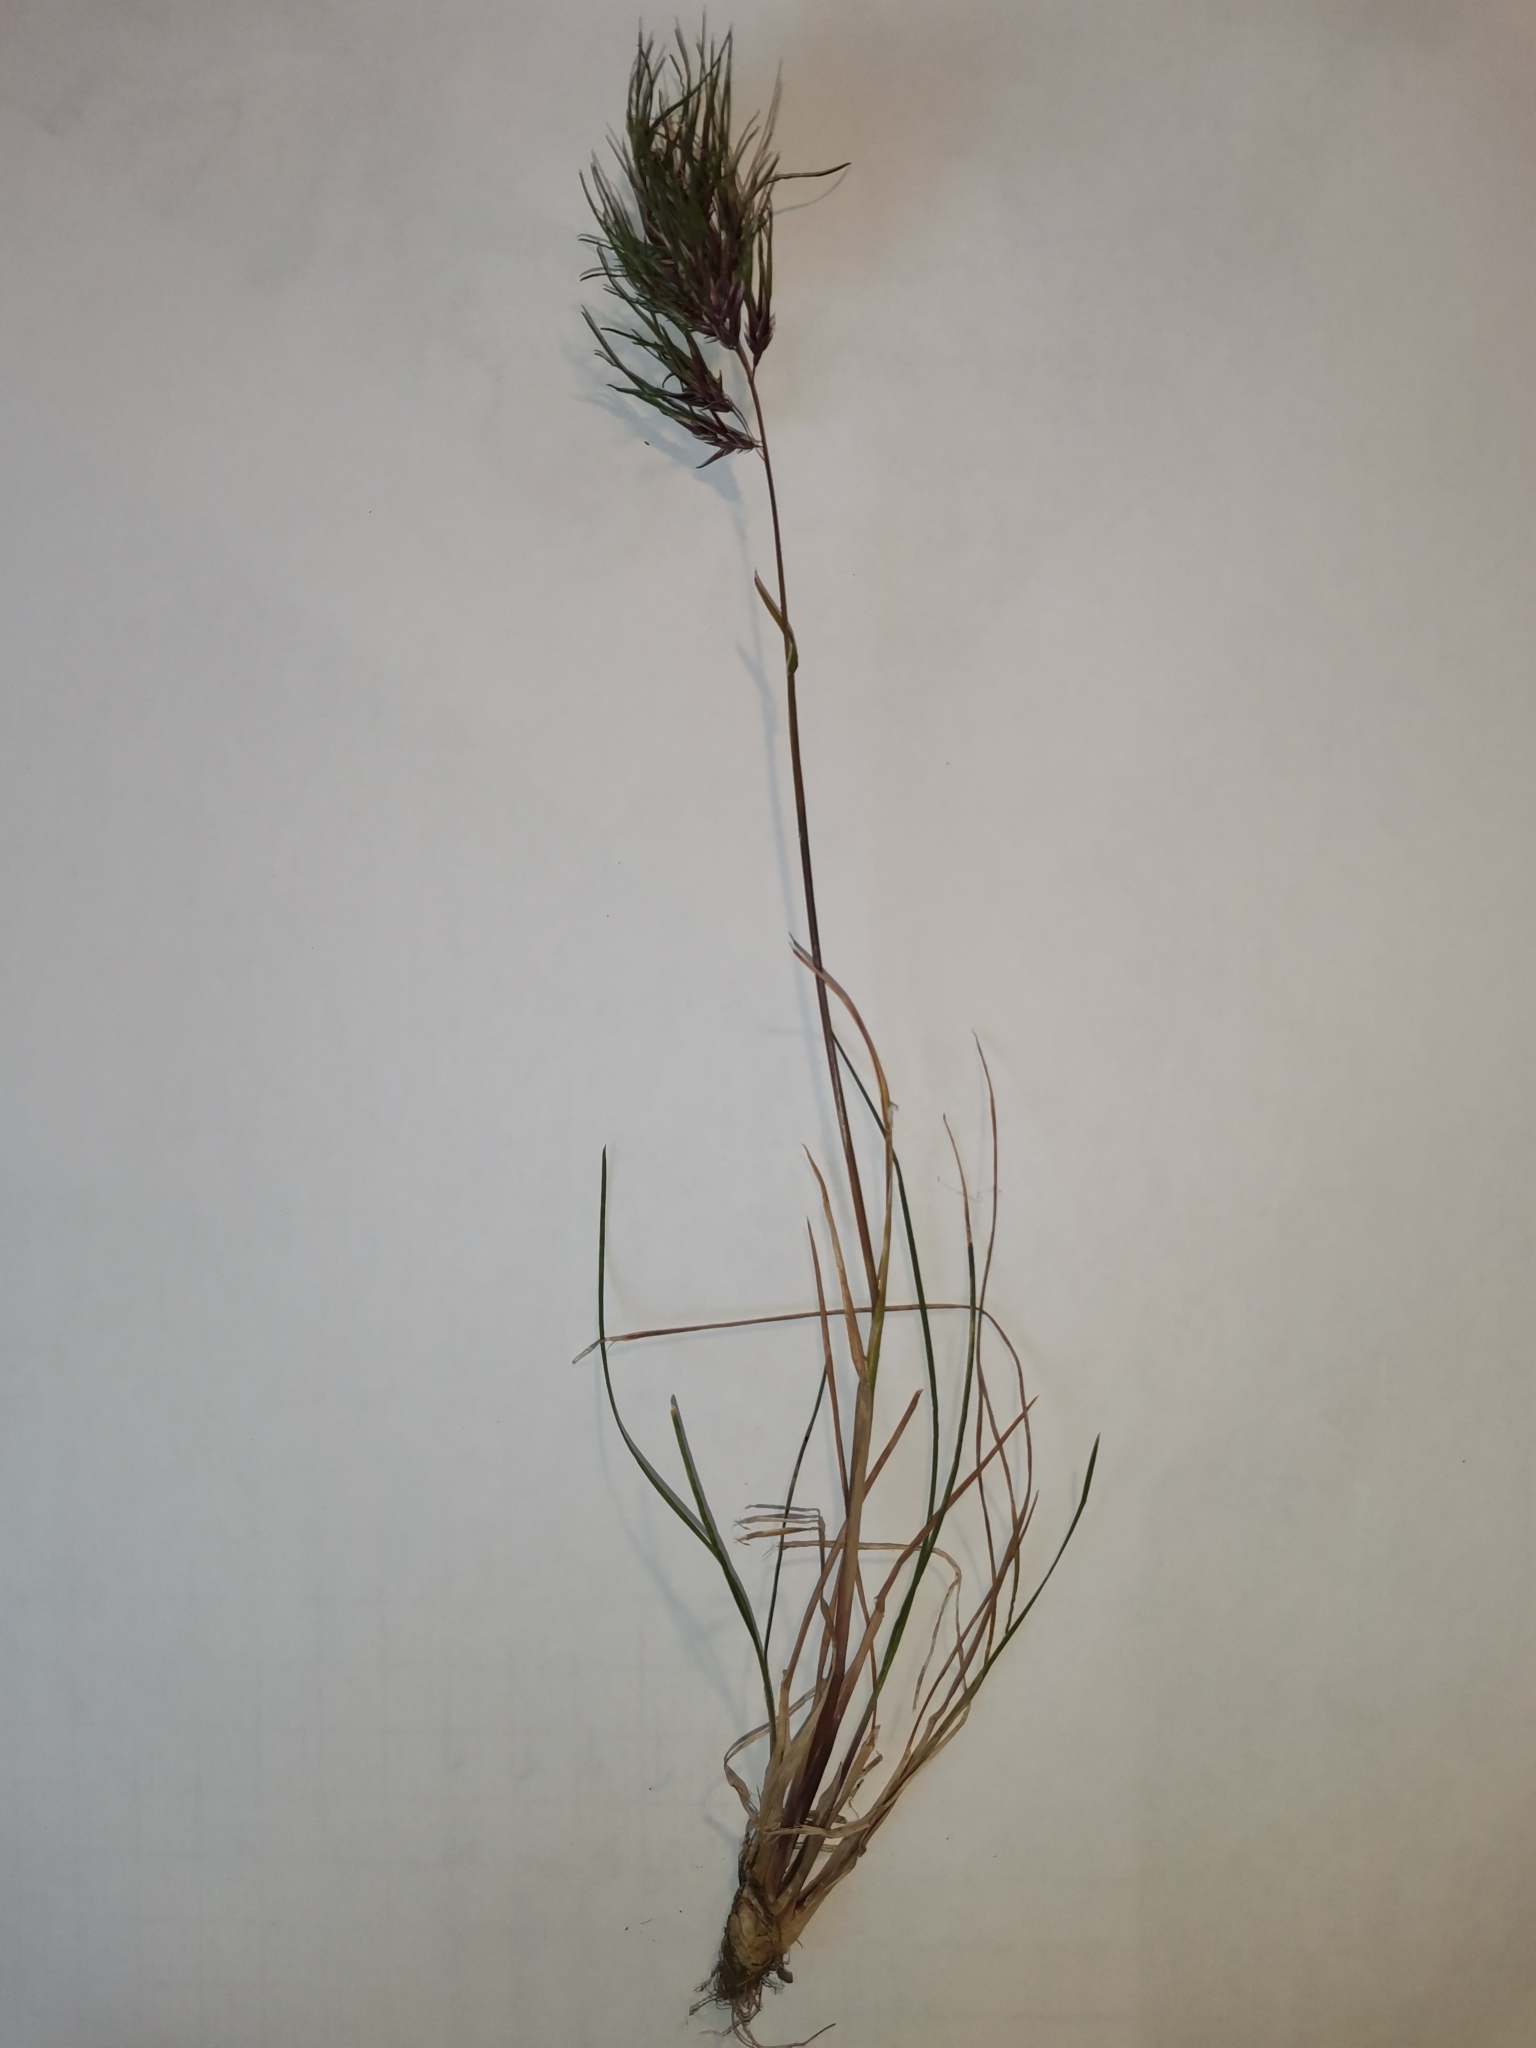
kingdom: Plantae
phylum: Tracheophyta
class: Liliopsida
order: Poales
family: Poaceae
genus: Poa
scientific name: Poa bulbosa
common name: Bulbous bluegrass
